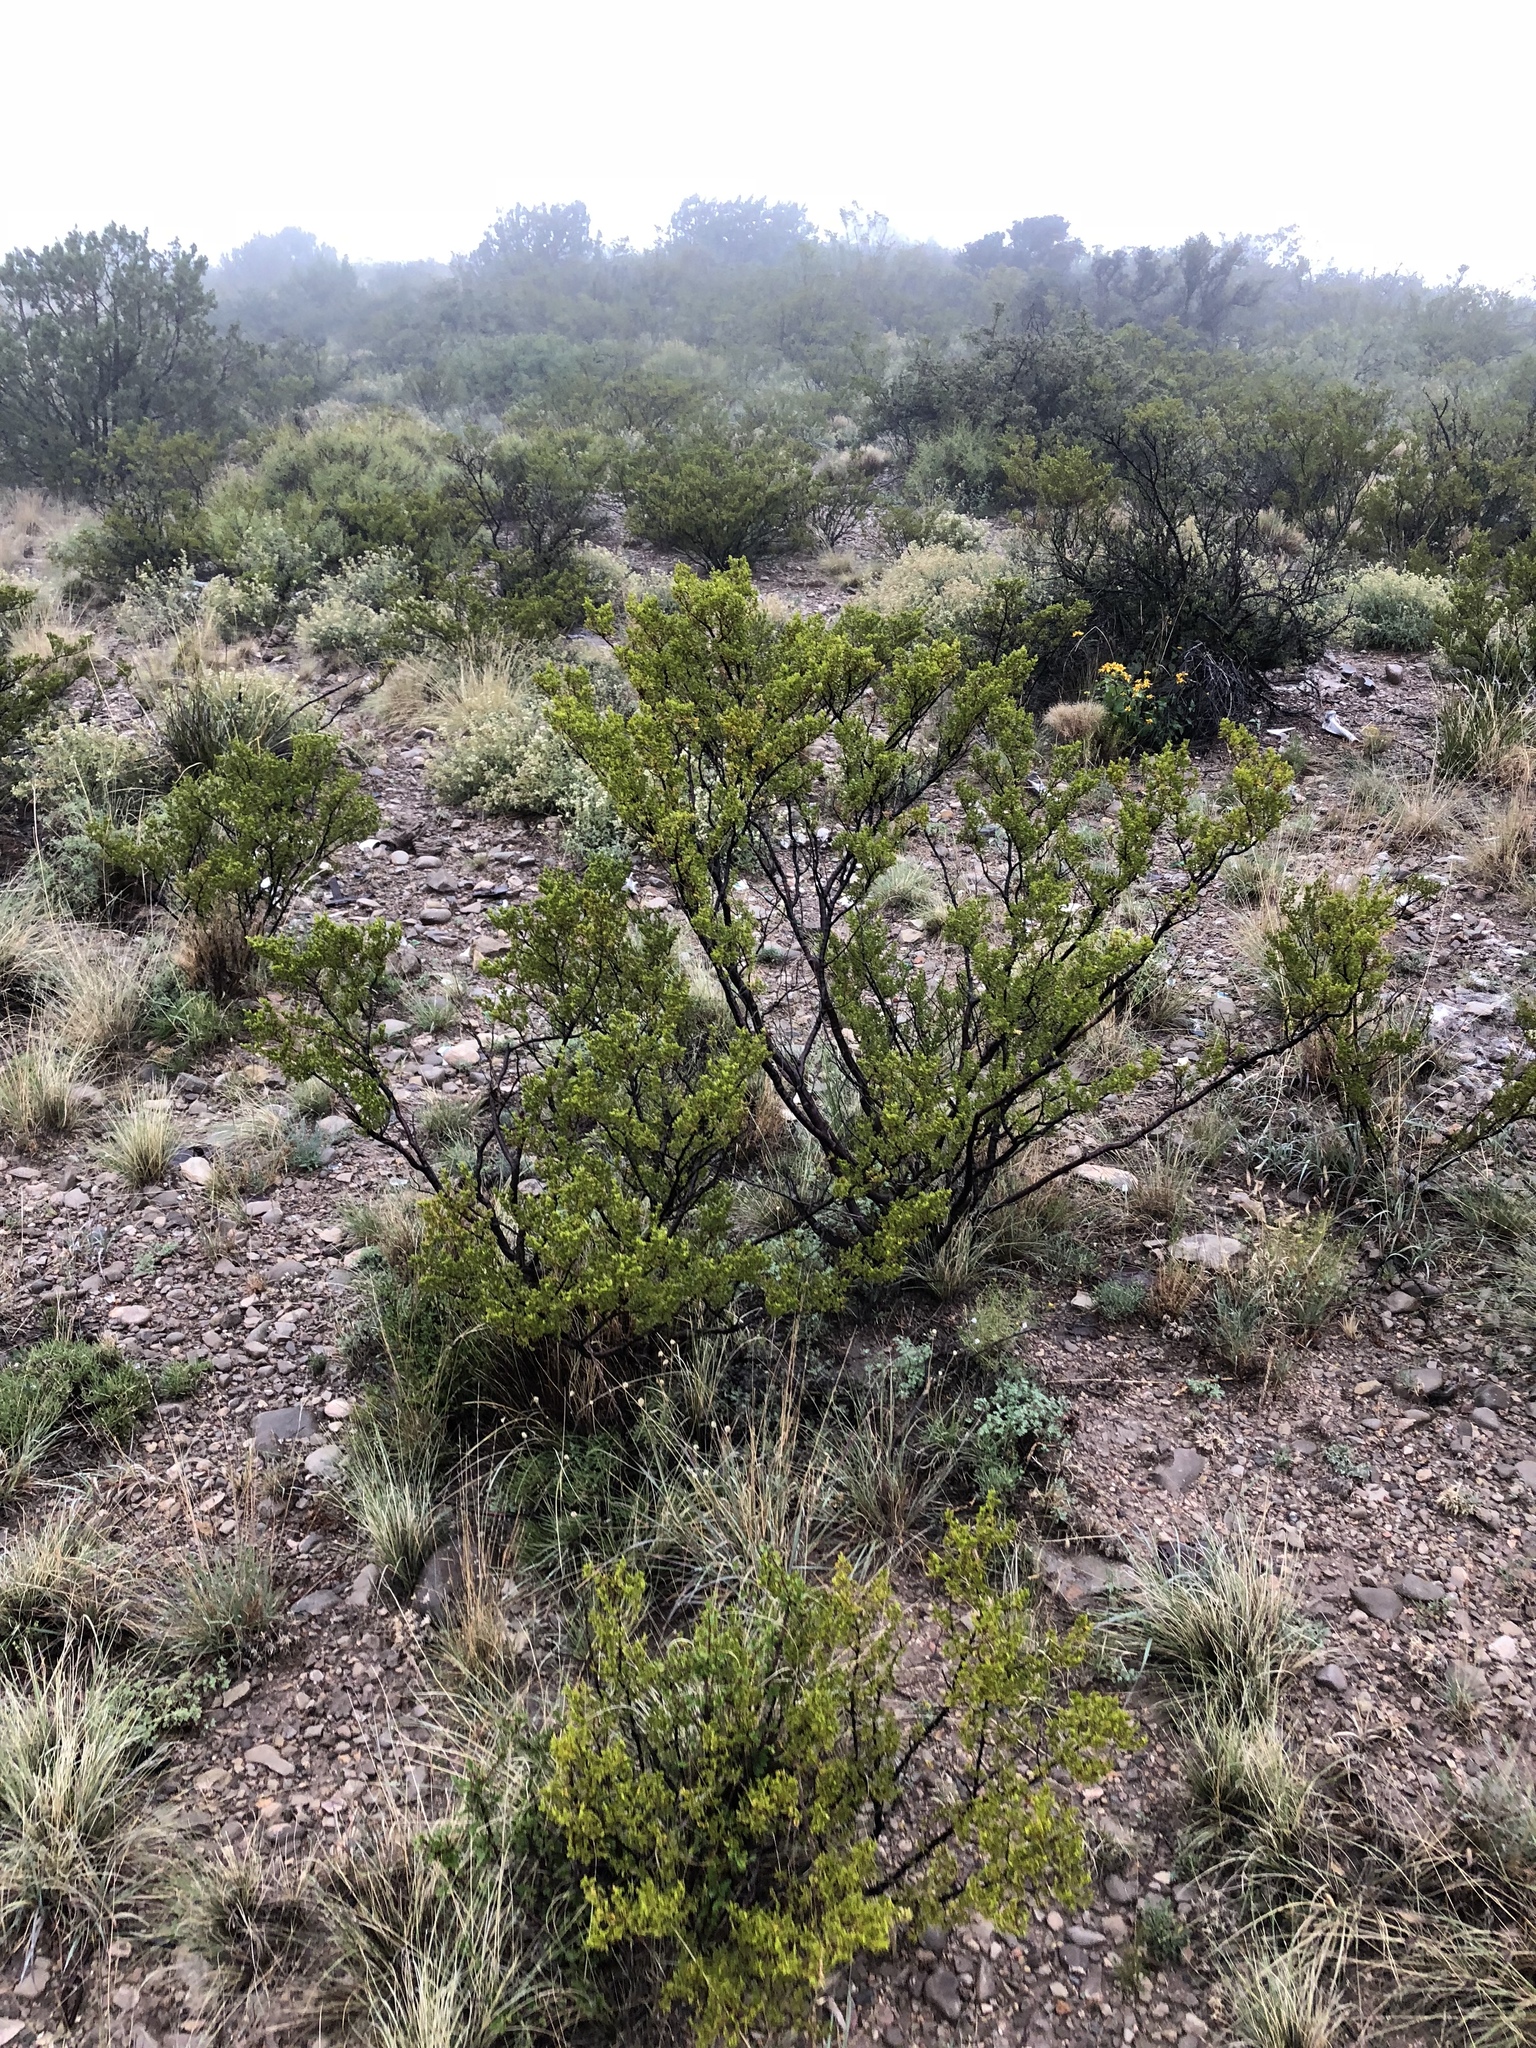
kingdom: Plantae
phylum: Tracheophyta
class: Magnoliopsida
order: Zygophyllales
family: Zygophyllaceae
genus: Larrea
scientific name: Larrea tridentata
